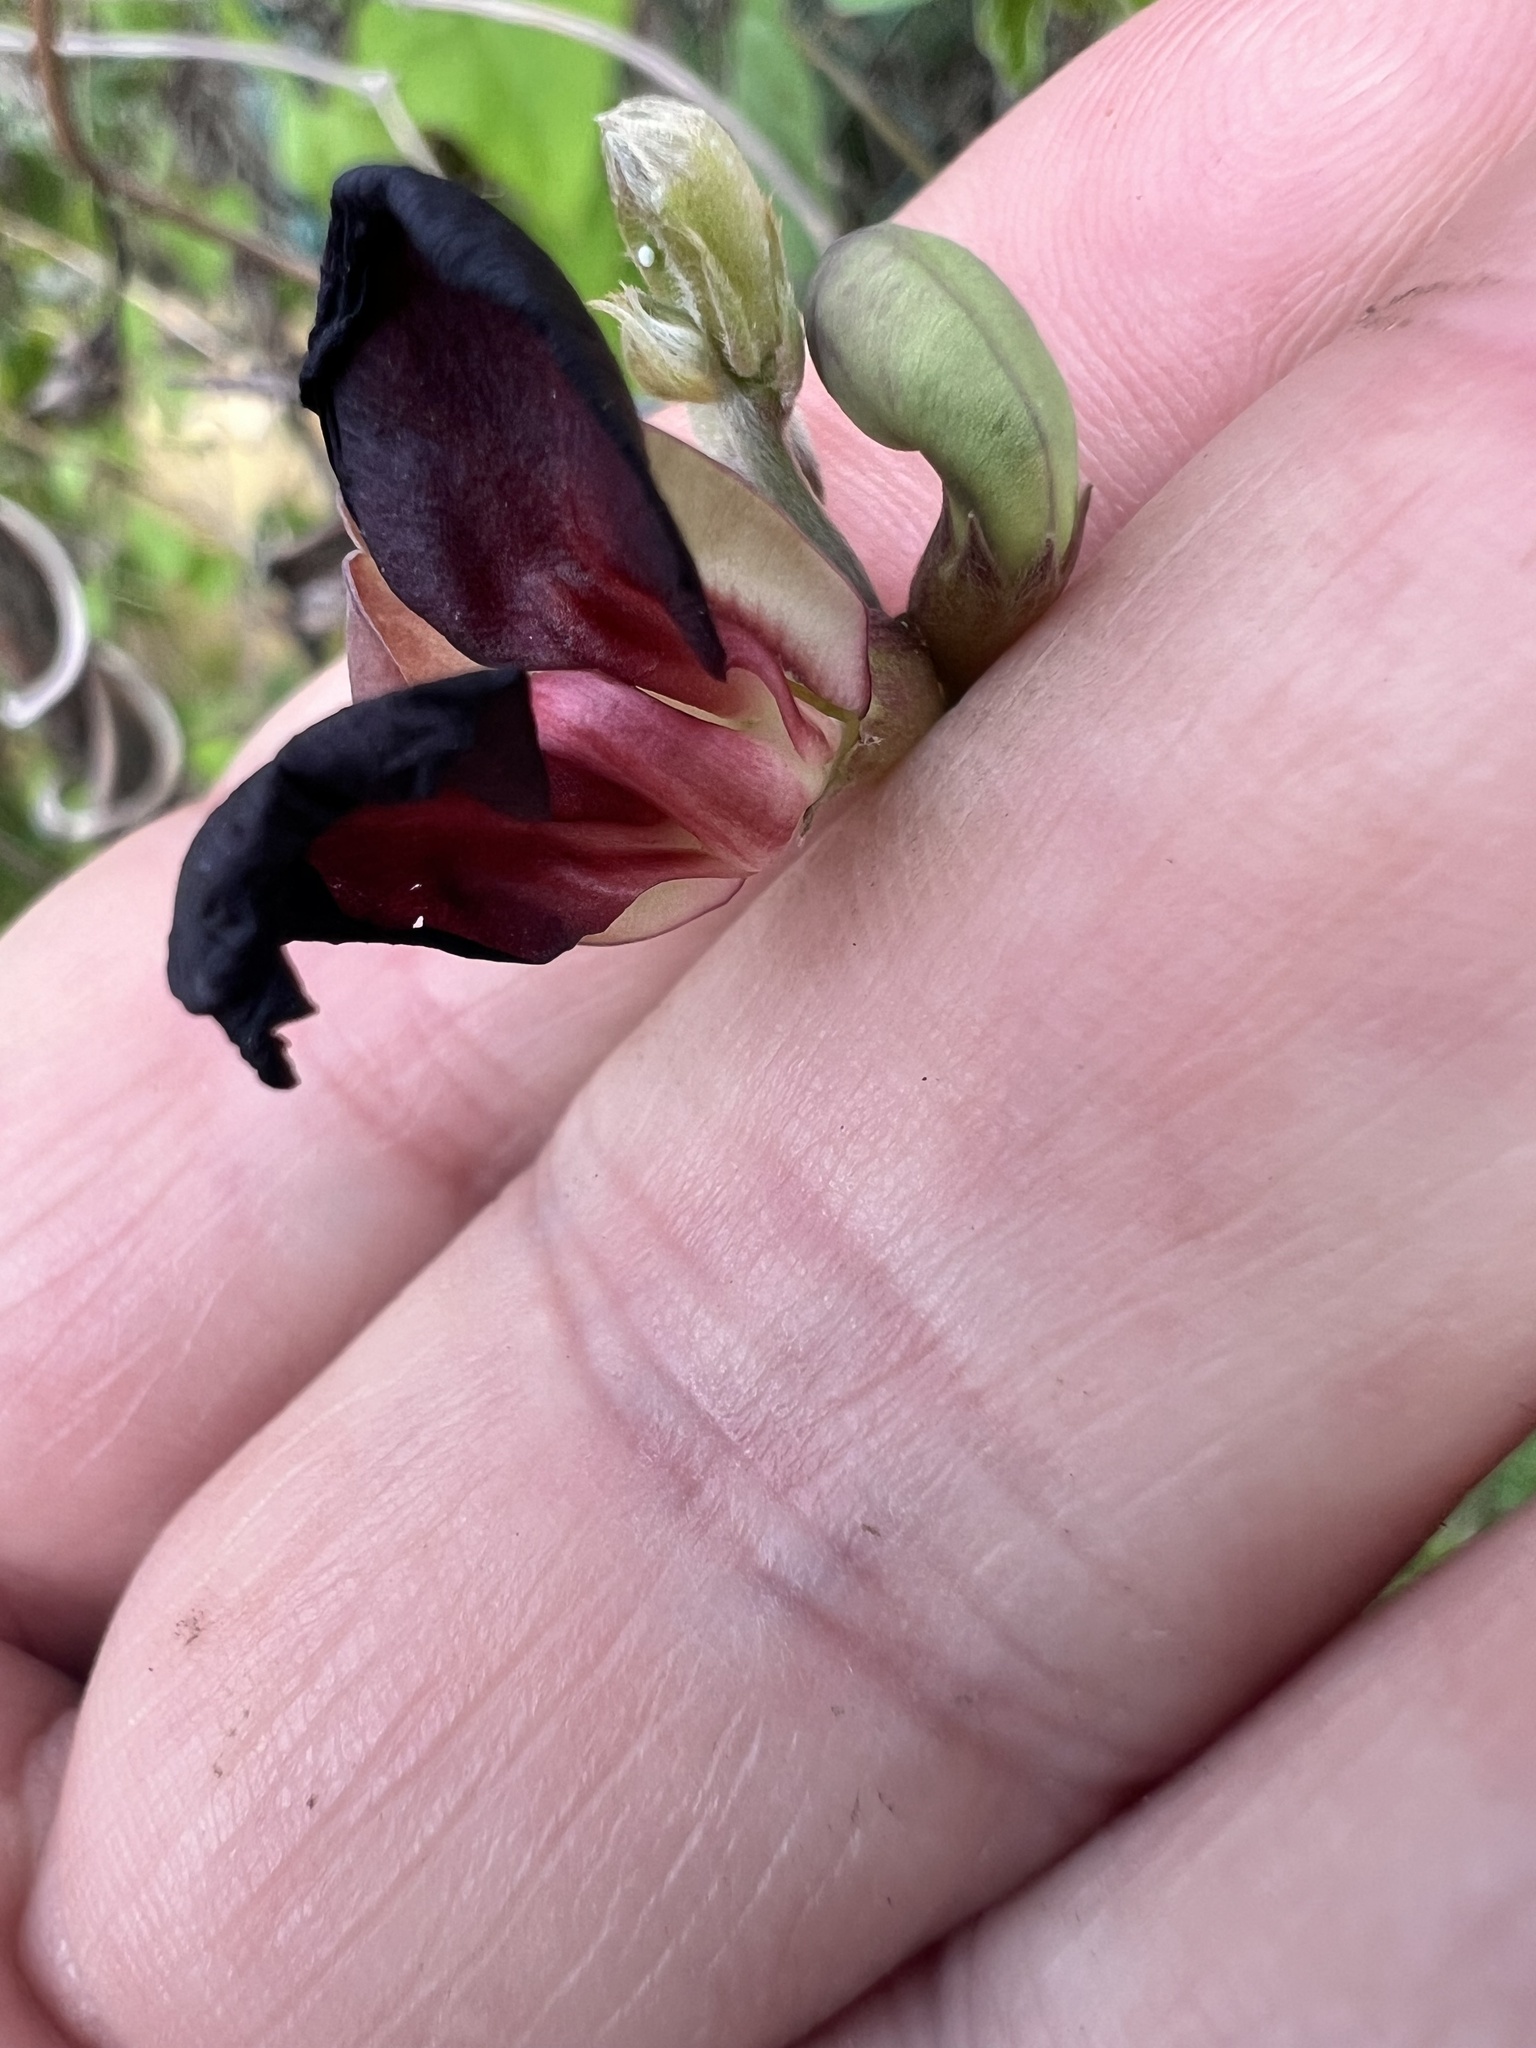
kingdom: Plantae
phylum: Tracheophyta
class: Magnoliopsida
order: Fabales
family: Fabaceae
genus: Macroptilium
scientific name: Macroptilium atropurpureum
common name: Purple bushbean
